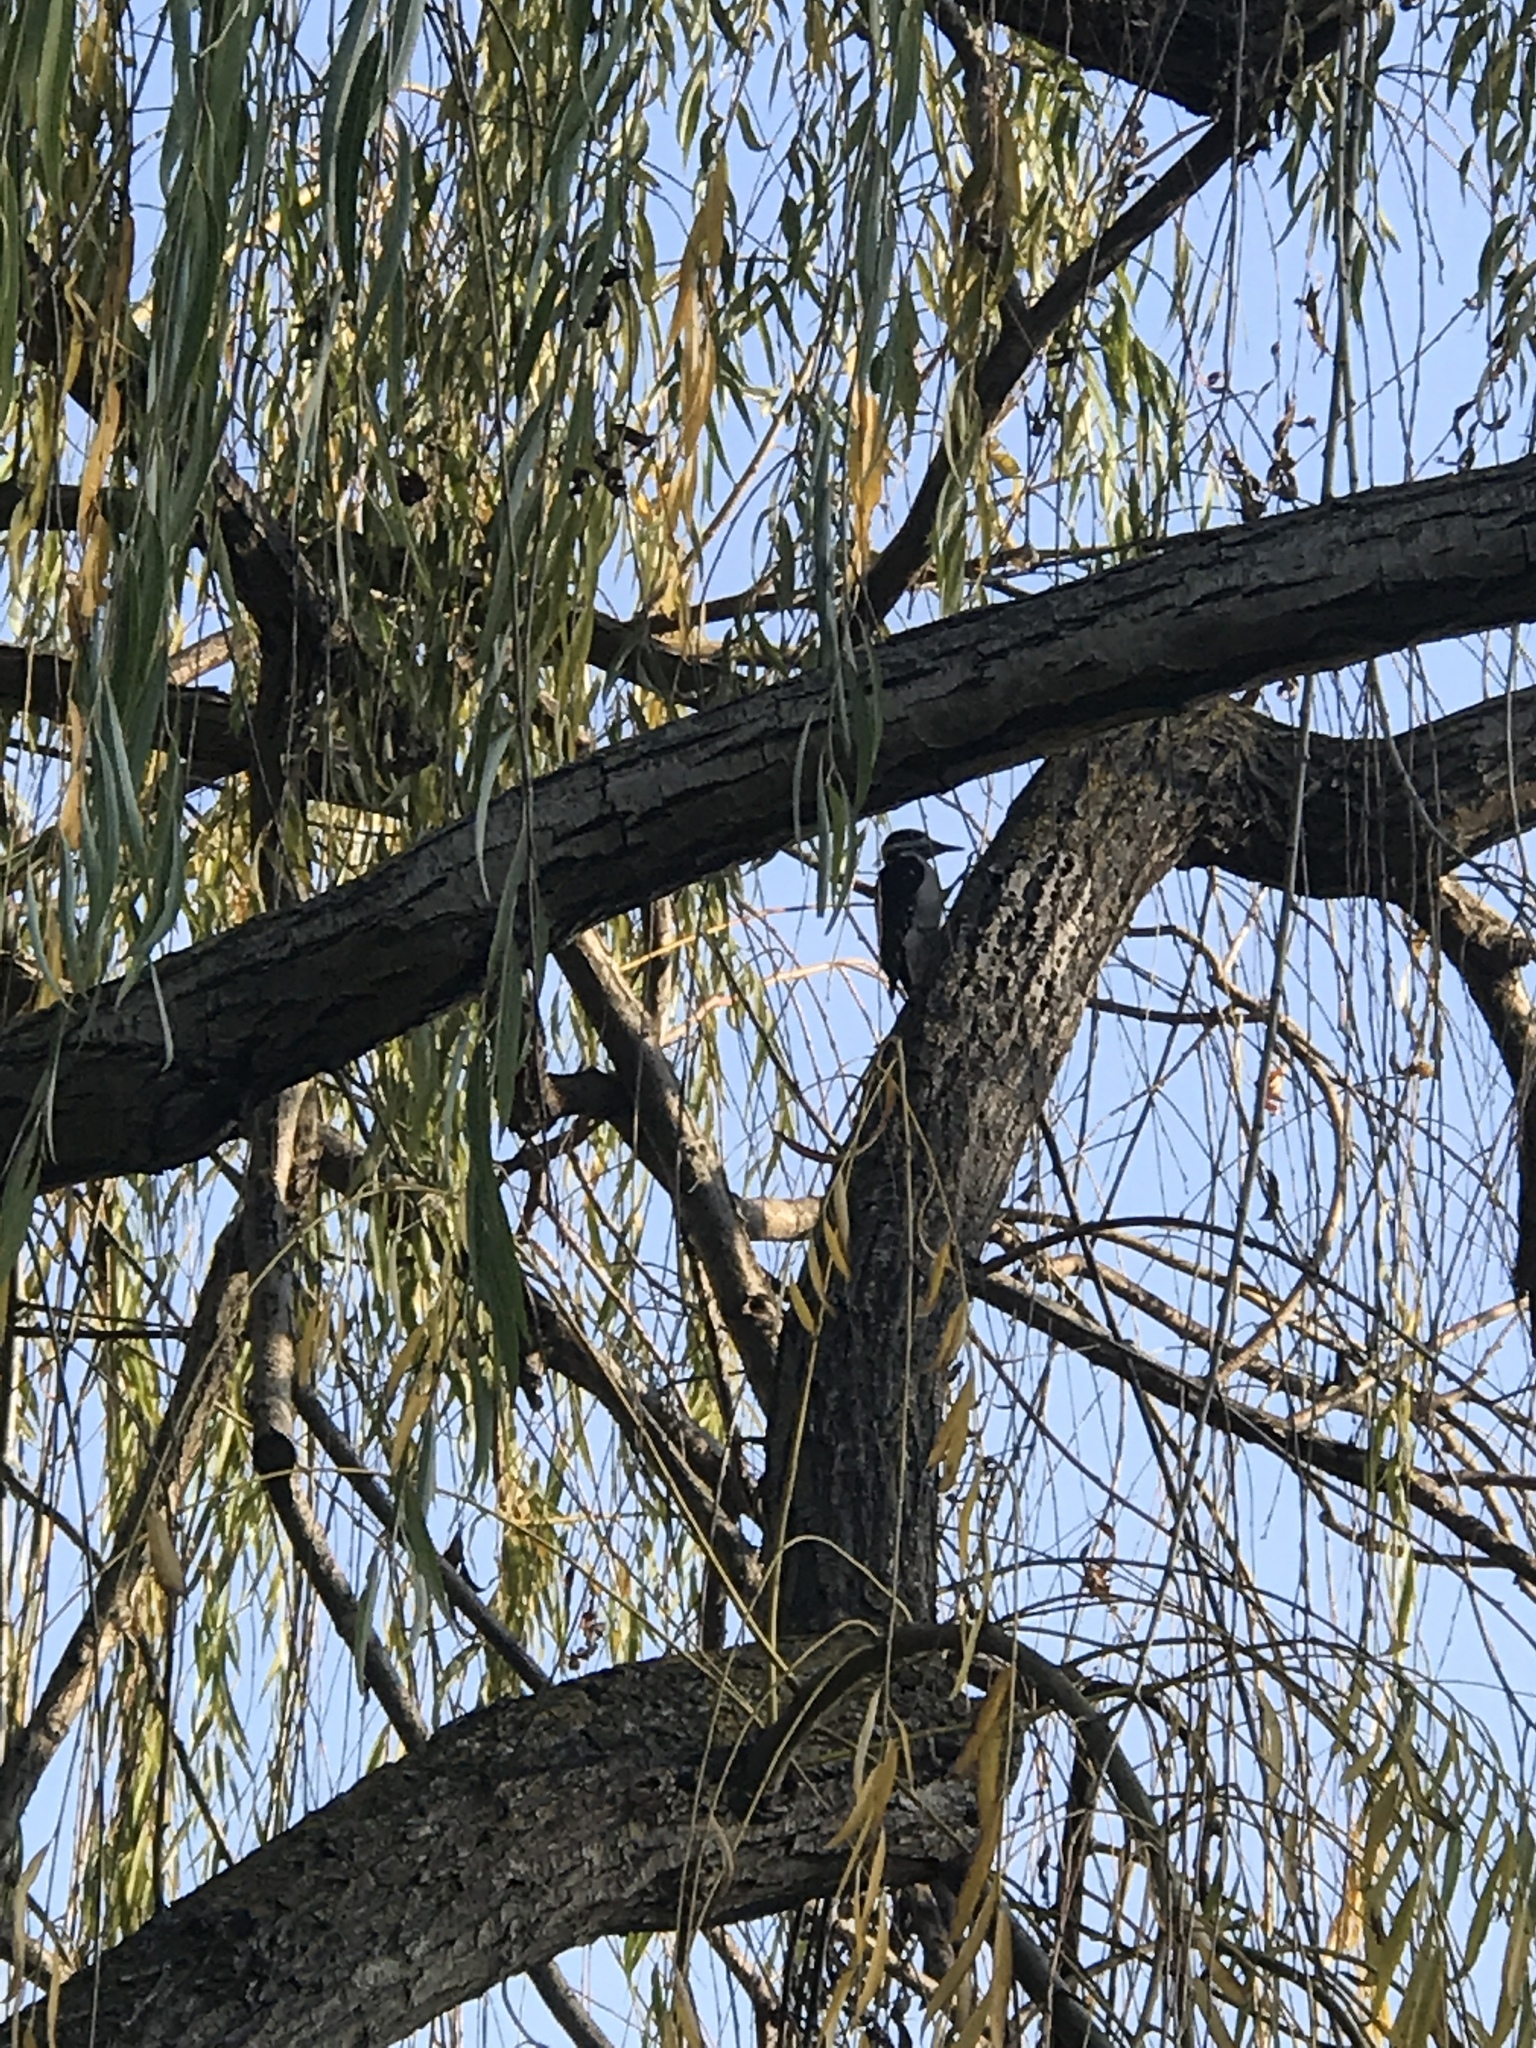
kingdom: Animalia
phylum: Chordata
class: Aves
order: Piciformes
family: Picidae
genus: Leuconotopicus
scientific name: Leuconotopicus villosus
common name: Hairy woodpecker
